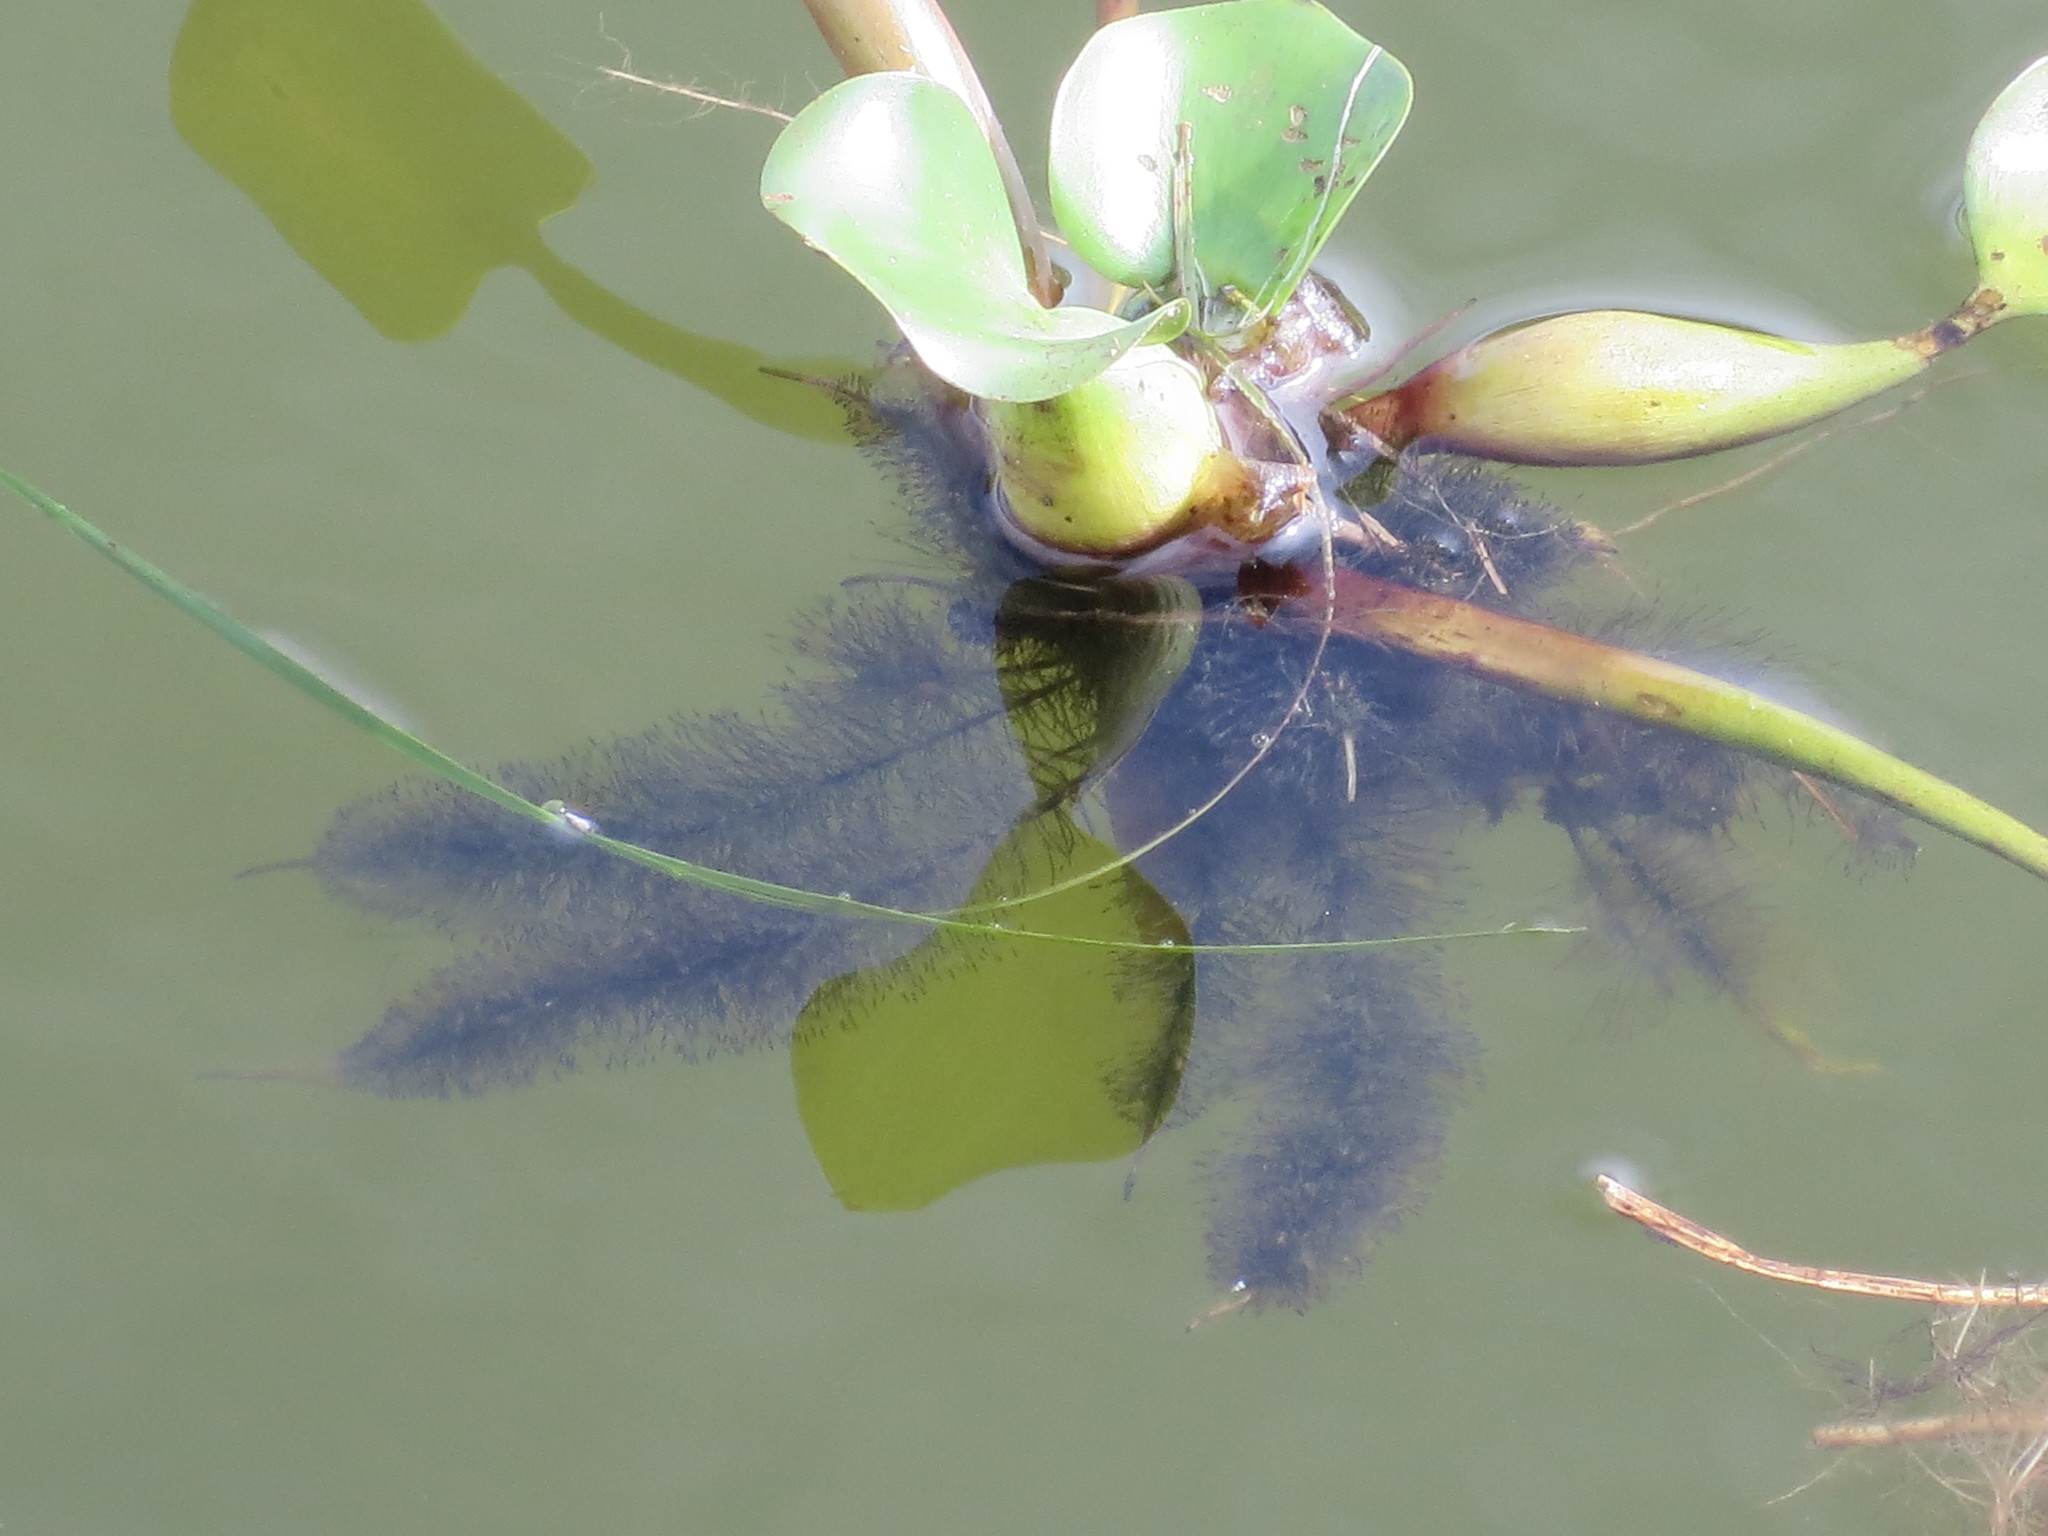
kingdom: Plantae
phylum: Tracheophyta
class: Liliopsida
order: Commelinales
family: Pontederiaceae
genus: Pontederia
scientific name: Pontederia crassipes
